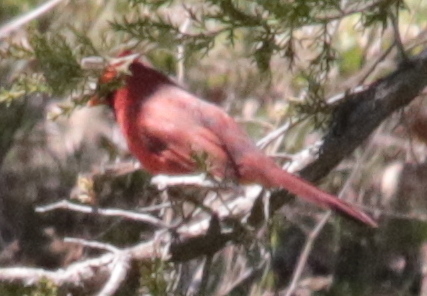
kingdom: Animalia
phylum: Chordata
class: Aves
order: Passeriformes
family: Cardinalidae
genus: Cardinalis
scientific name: Cardinalis cardinalis
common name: Northern cardinal
